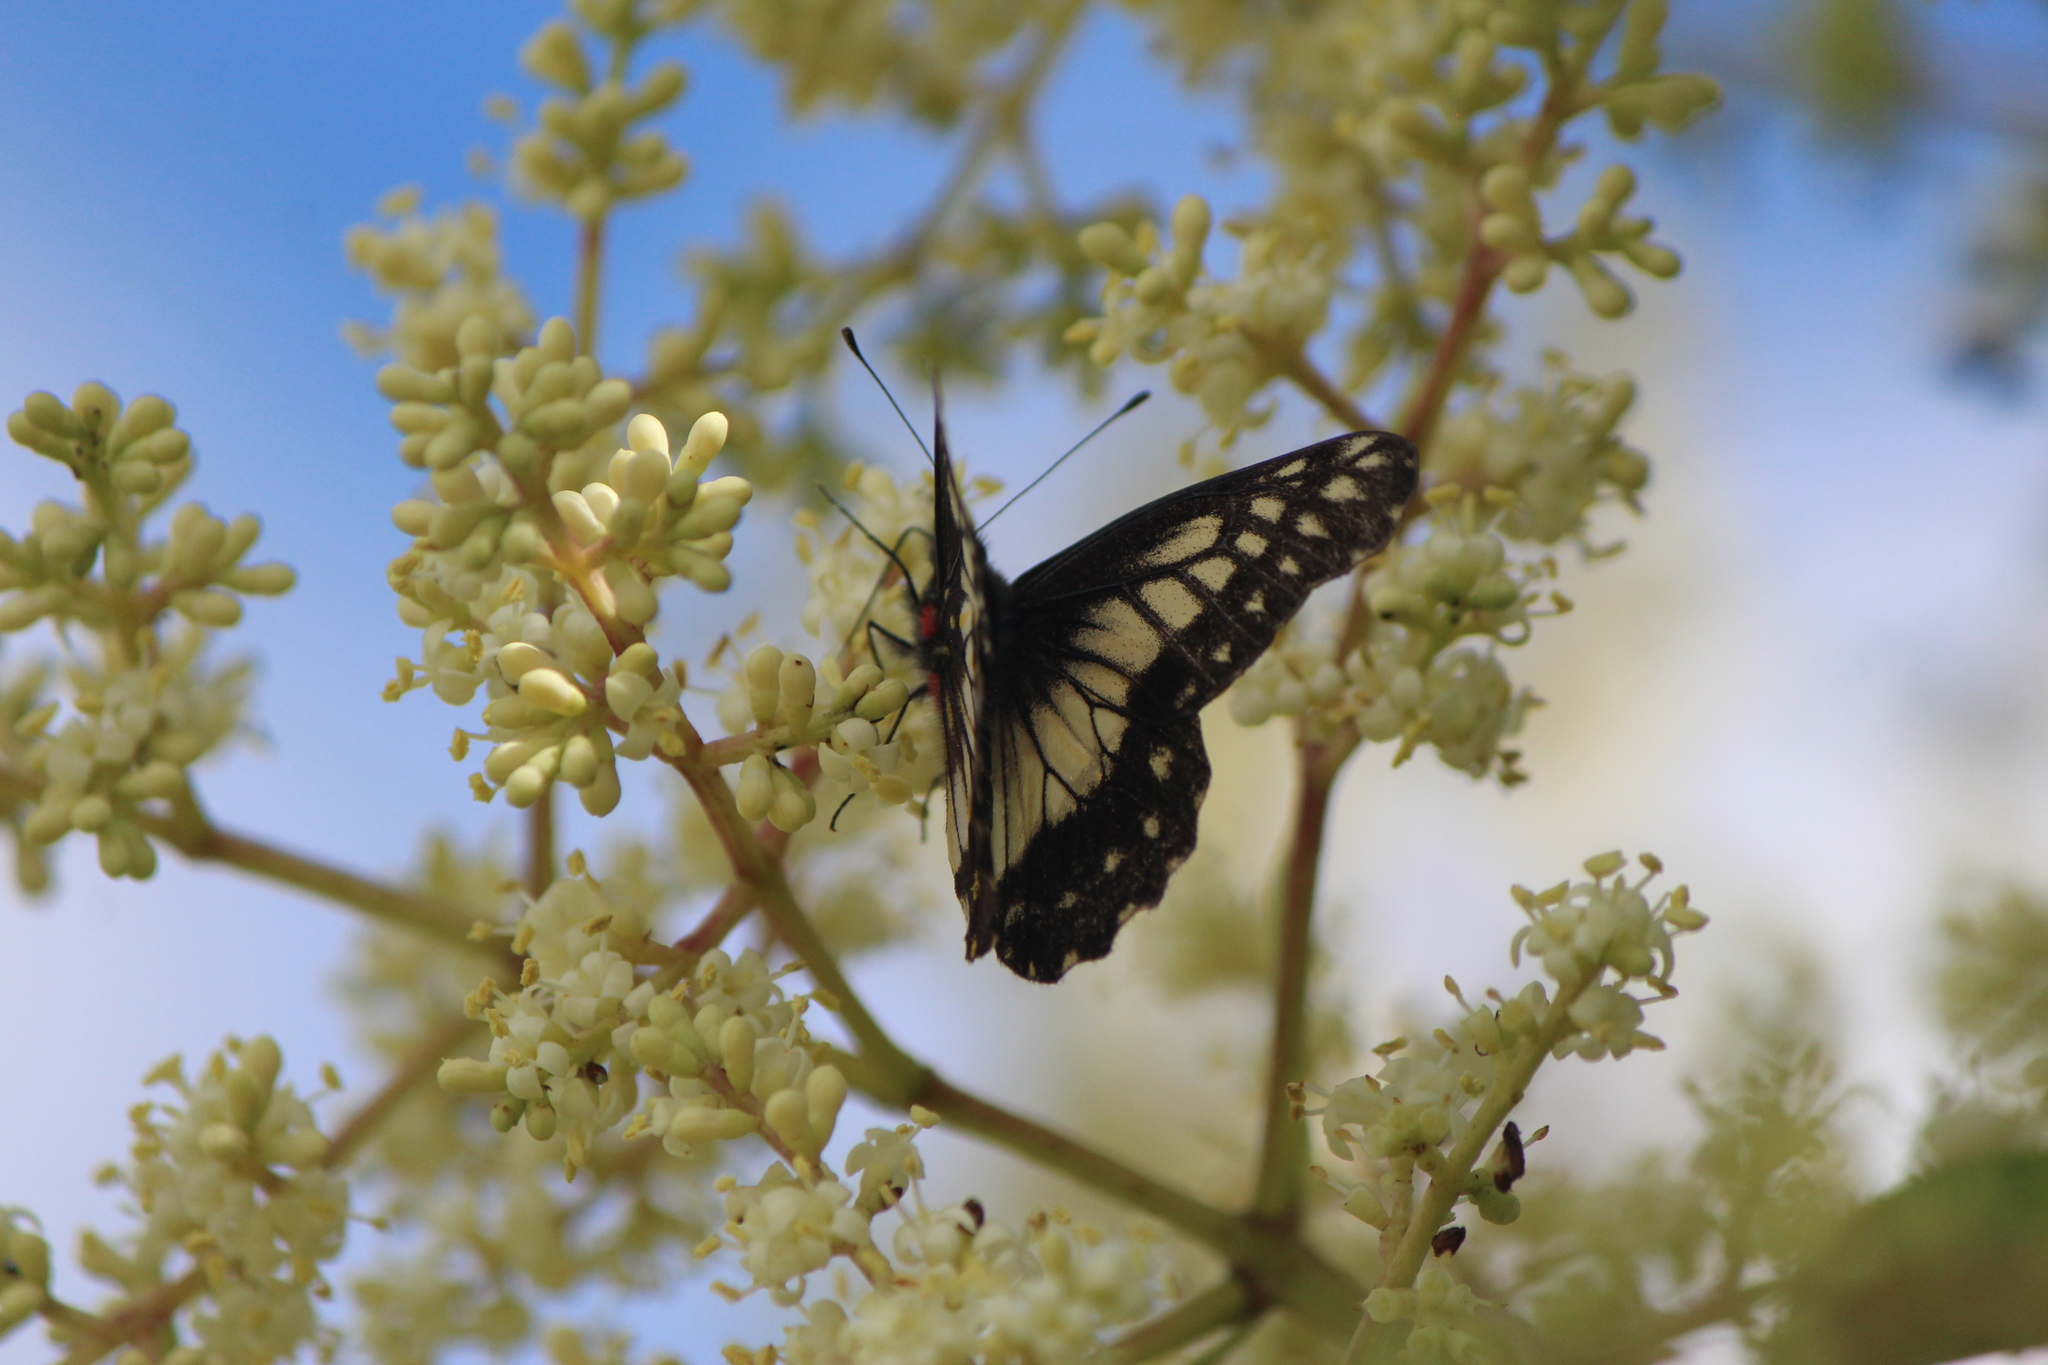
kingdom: Animalia
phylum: Arthropoda
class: Insecta
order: Lepidoptera
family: Pieridae
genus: Archonias
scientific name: Archonias nimbice
